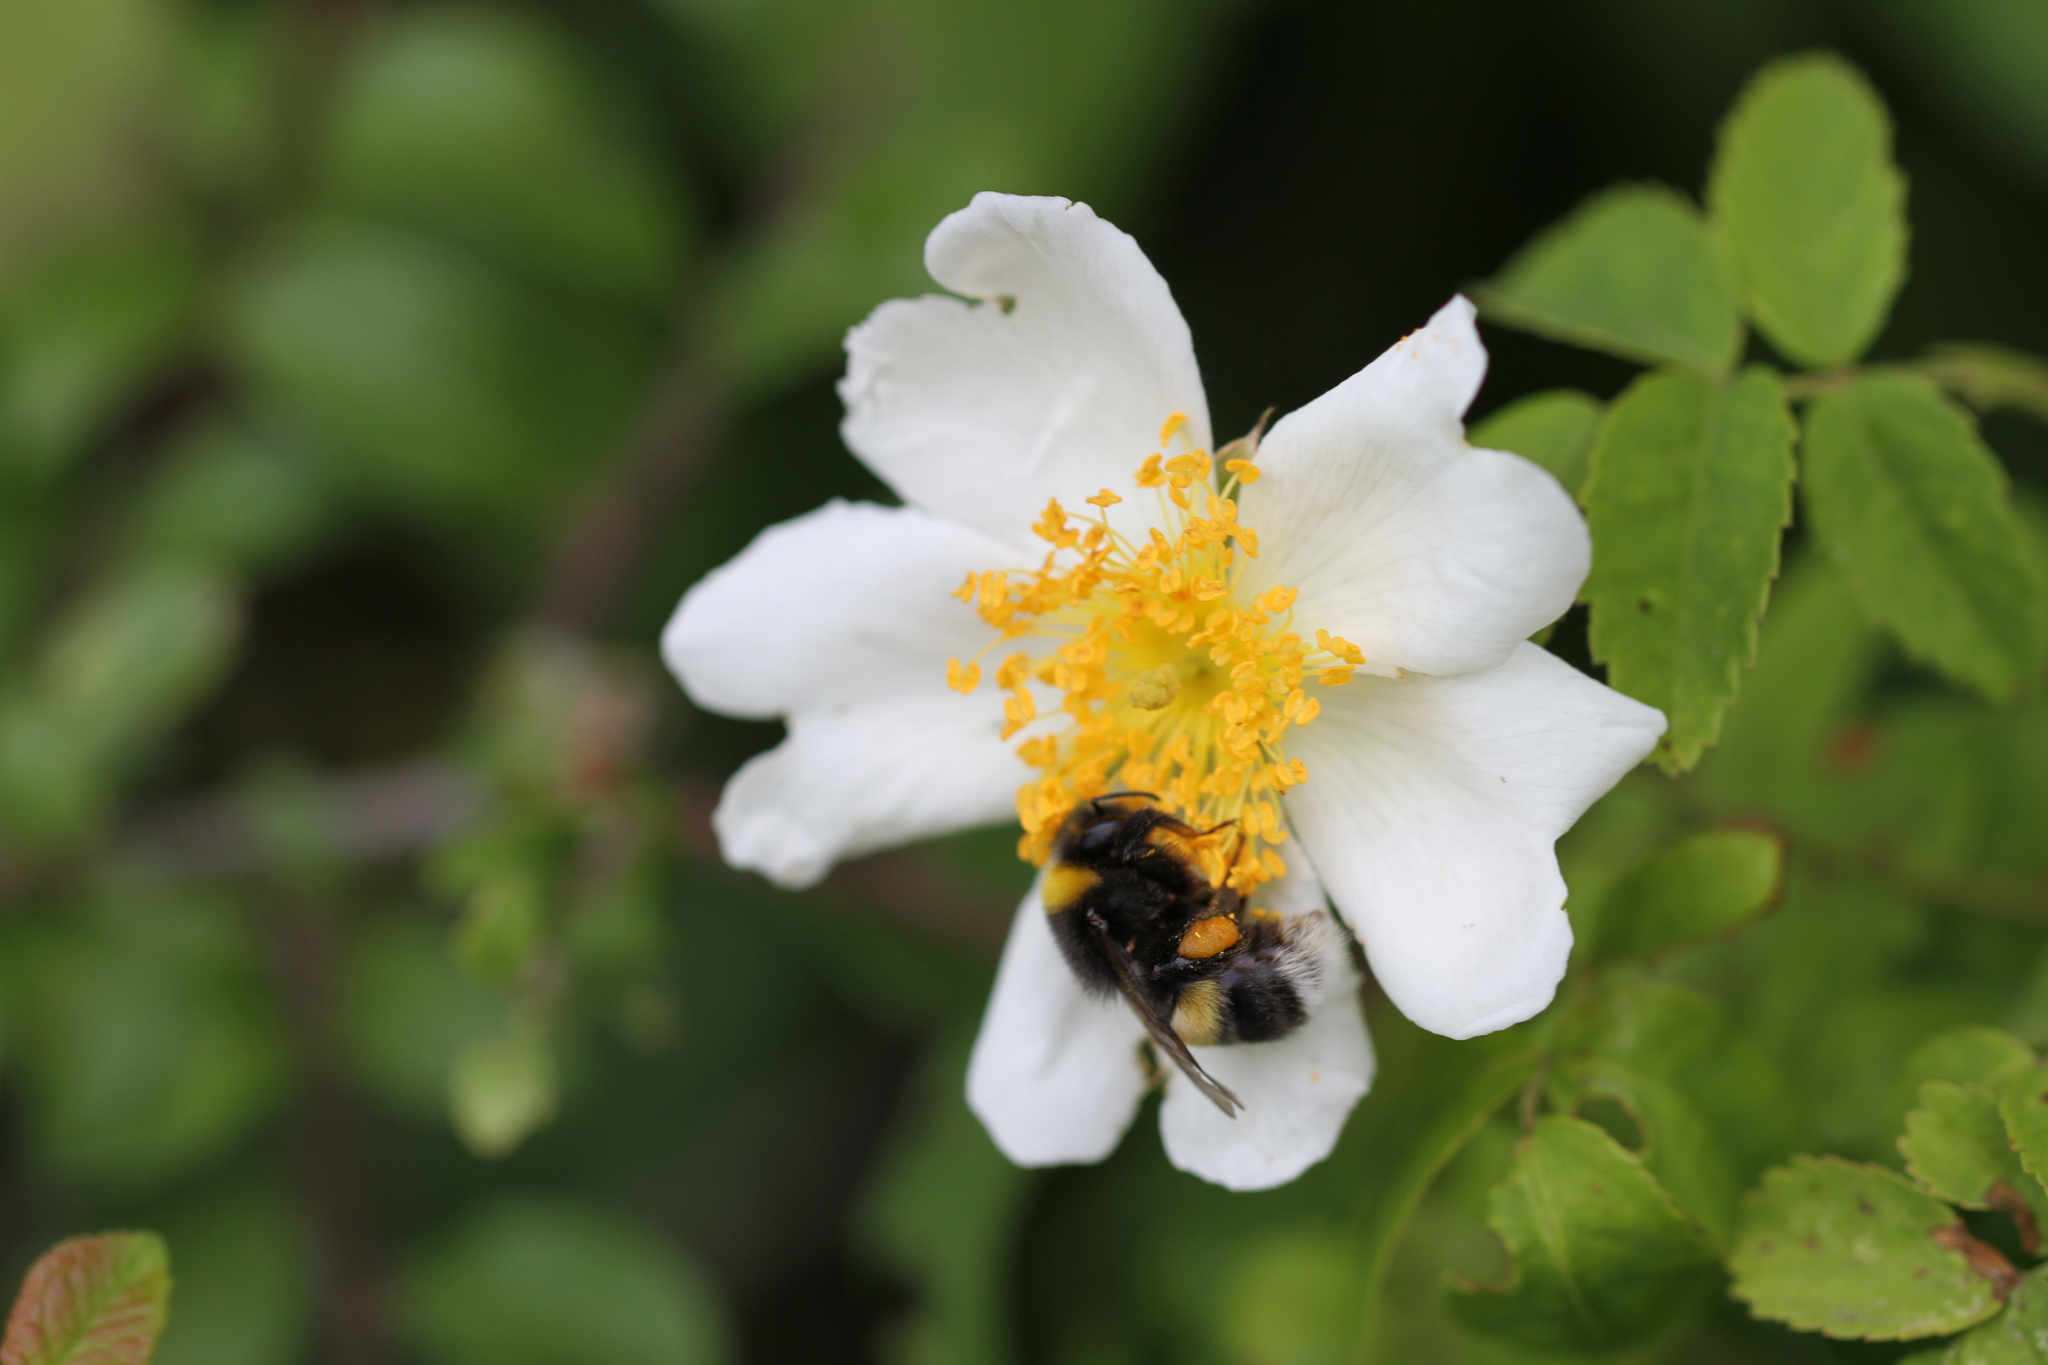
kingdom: Animalia
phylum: Arthropoda
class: Insecta
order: Hymenoptera
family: Apidae
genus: Bombus
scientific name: Bombus
